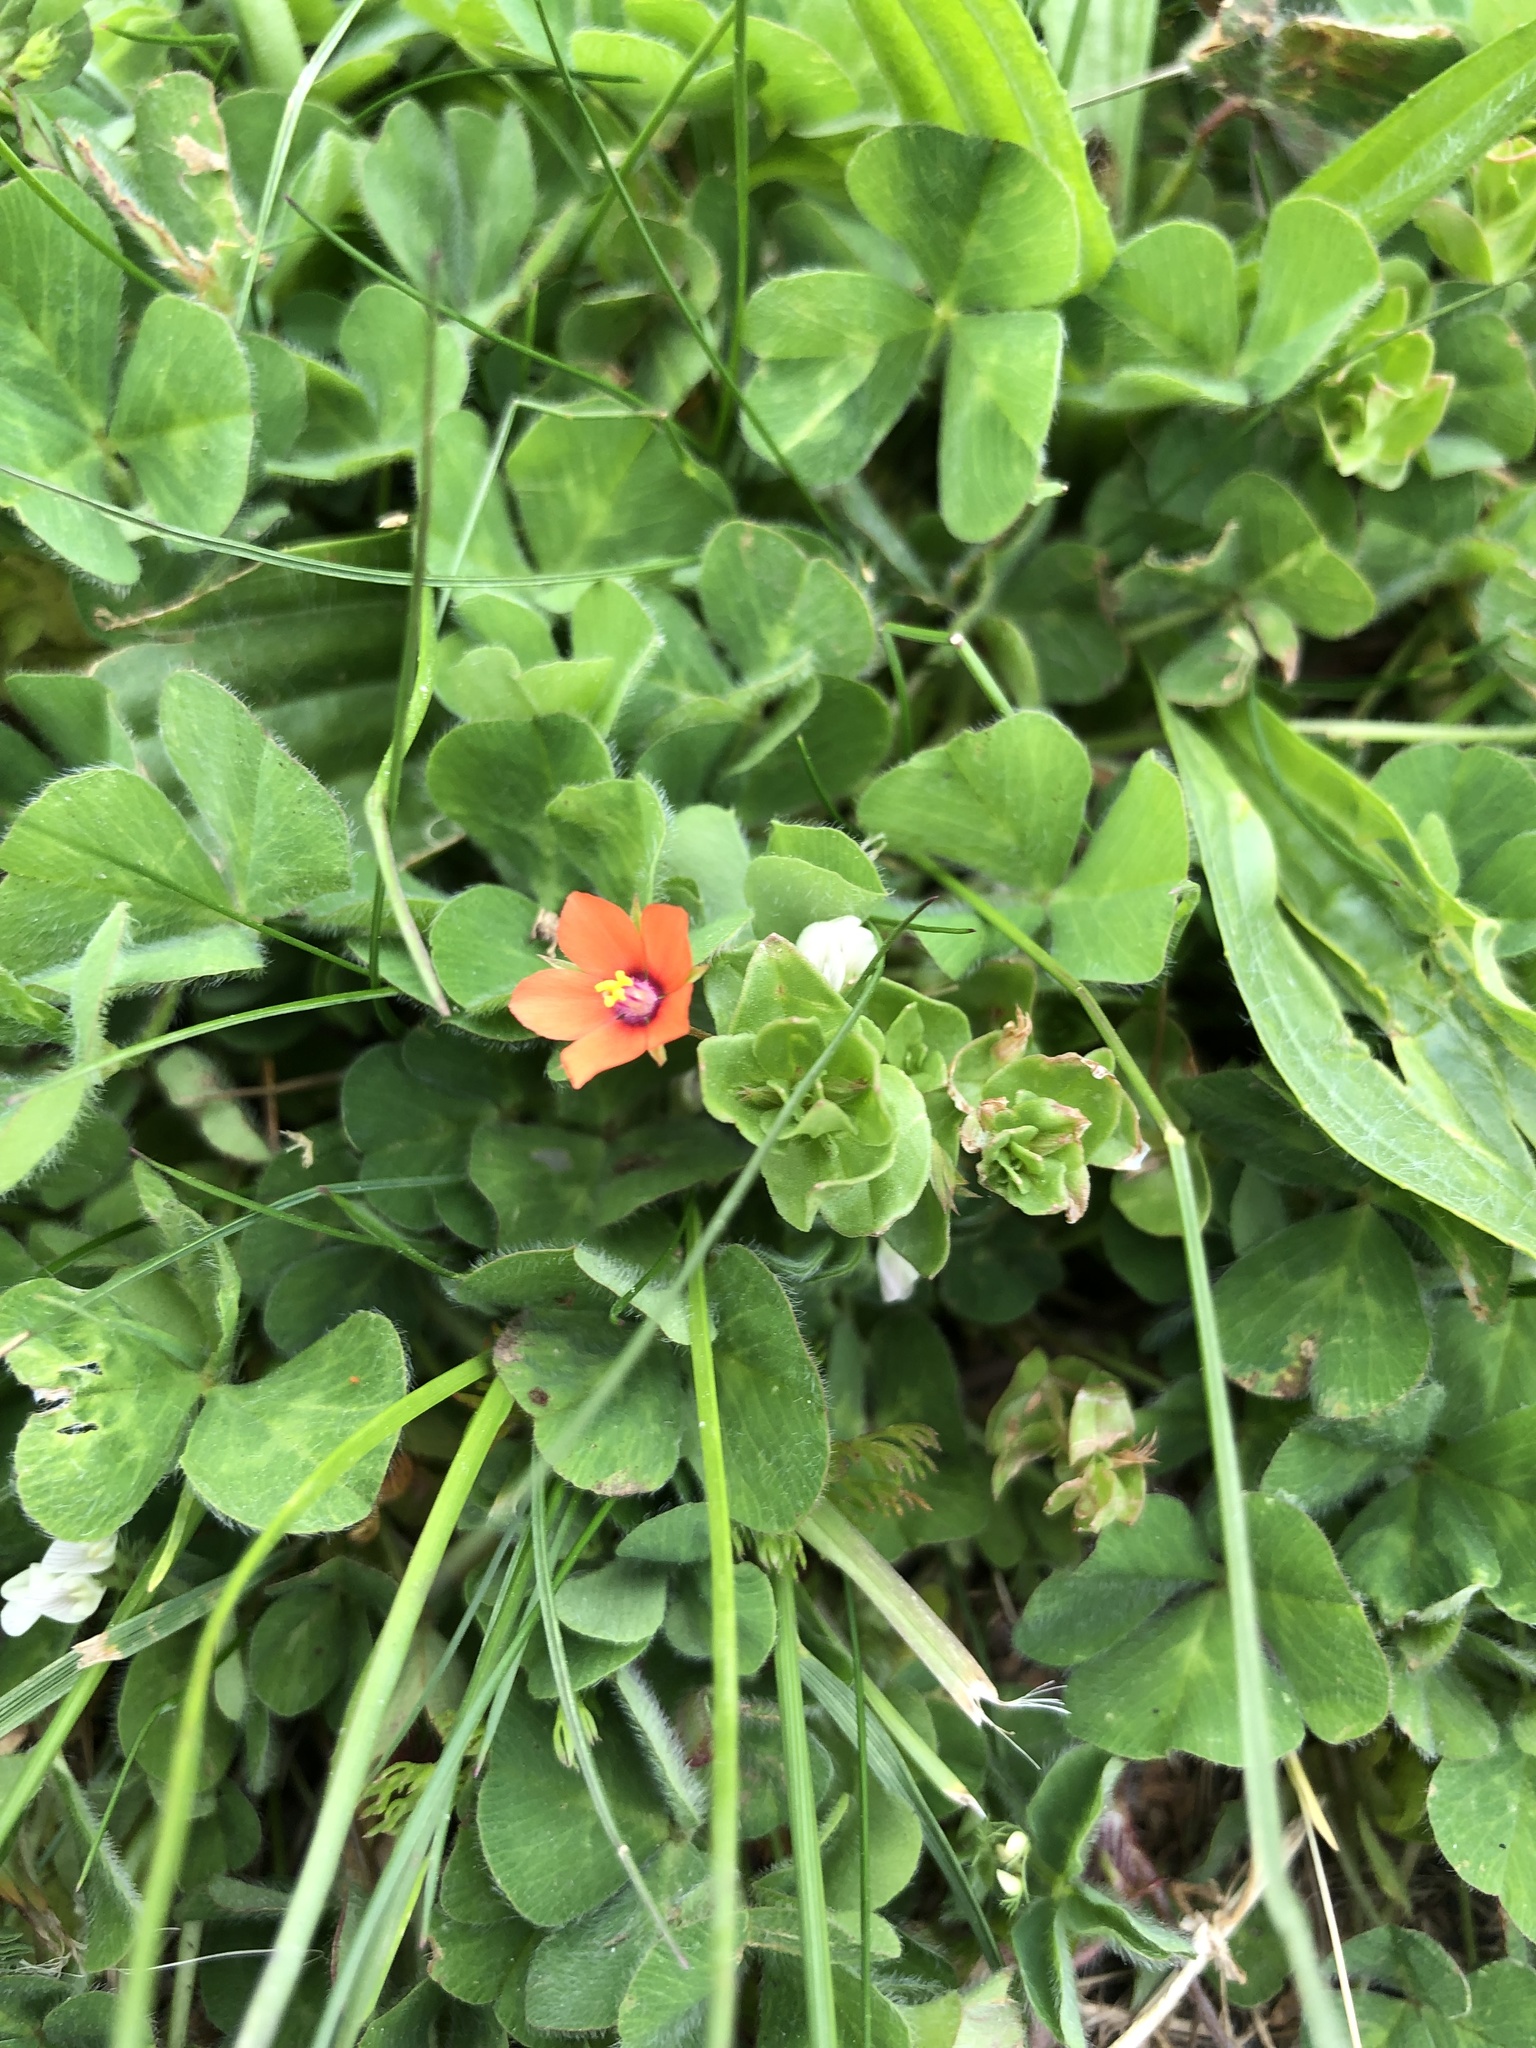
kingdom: Plantae
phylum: Tracheophyta
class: Magnoliopsida
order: Ericales
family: Primulaceae
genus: Lysimachia
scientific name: Lysimachia arvensis
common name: Scarlet pimpernel
